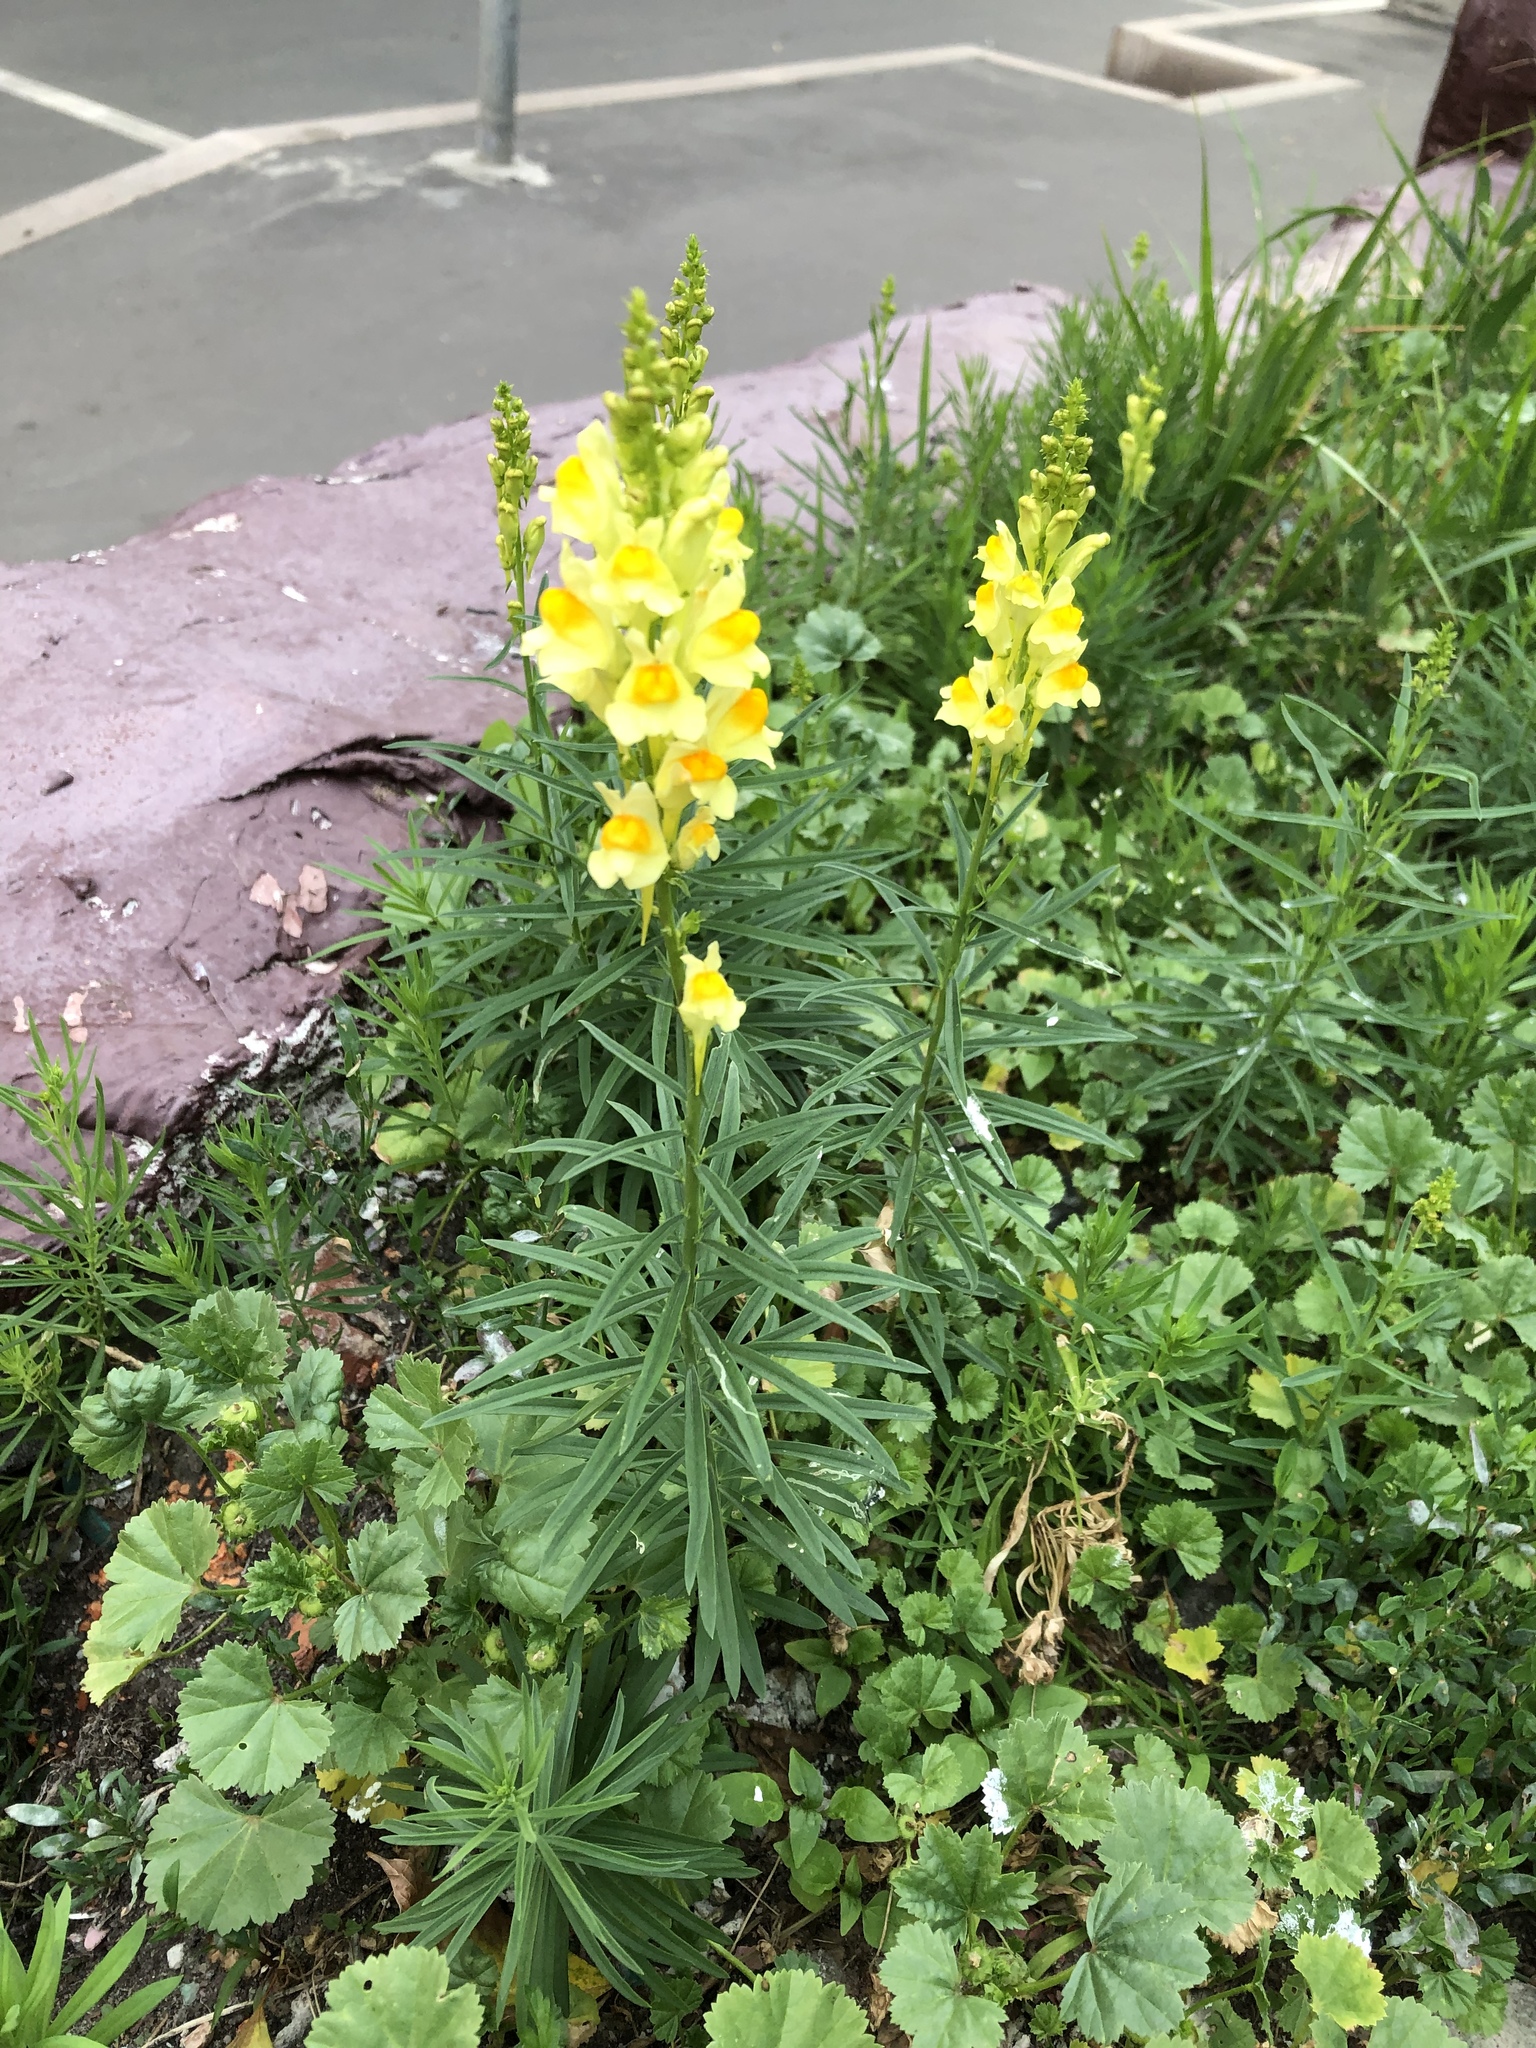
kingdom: Plantae
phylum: Tracheophyta
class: Magnoliopsida
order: Lamiales
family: Plantaginaceae
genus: Linaria
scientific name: Linaria vulgaris
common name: Butter and eggs
